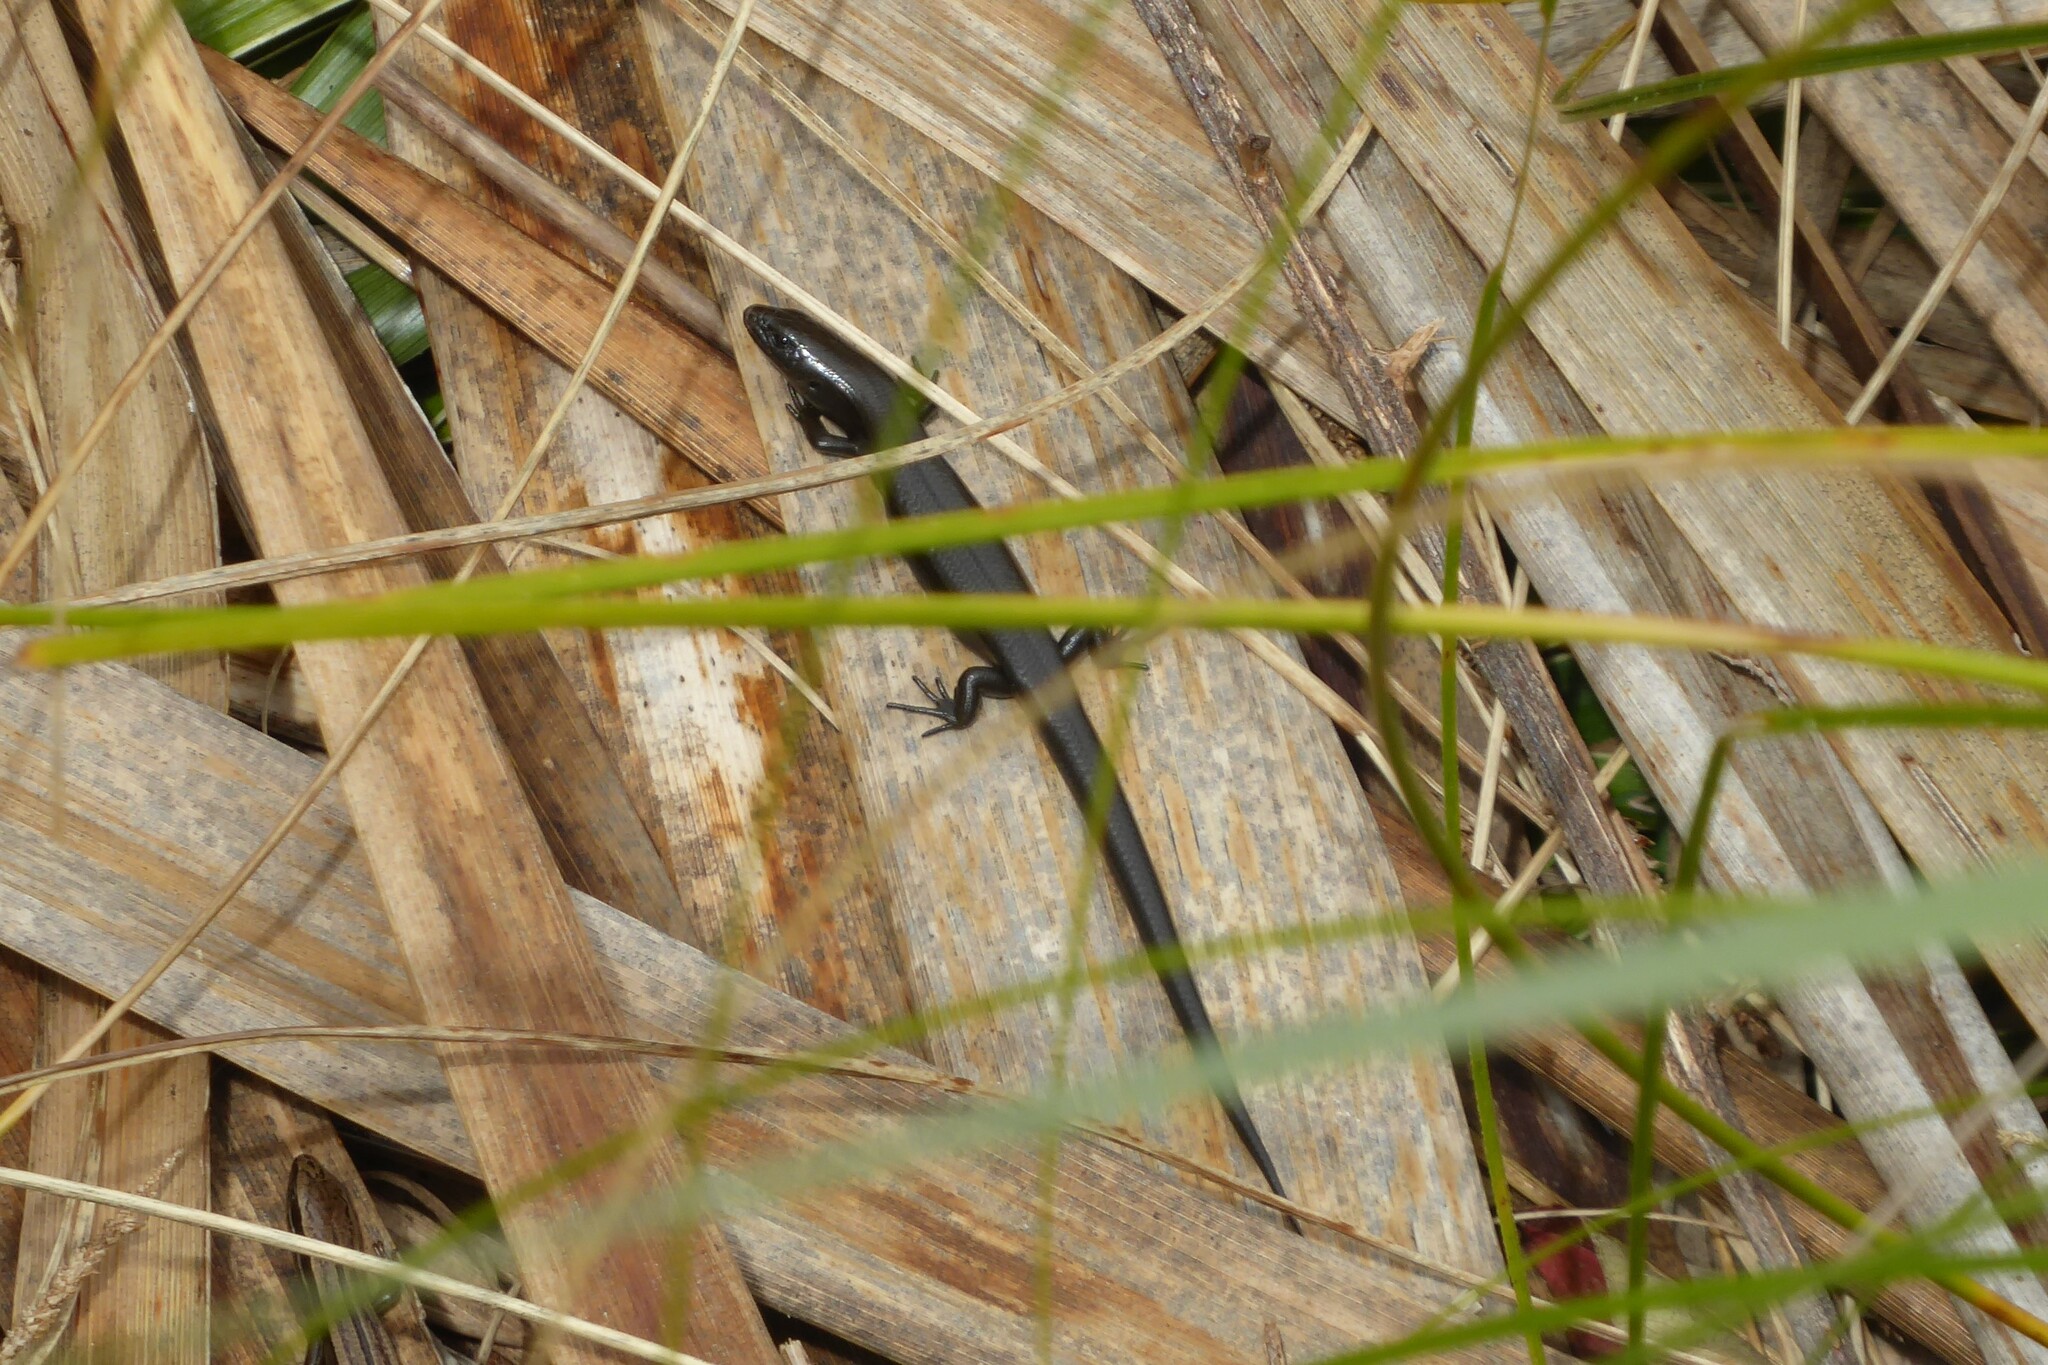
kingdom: Animalia
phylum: Chordata
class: Squamata
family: Scincidae
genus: Oligosoma
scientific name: Oligosoma polychroma
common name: Common new zealand skink
